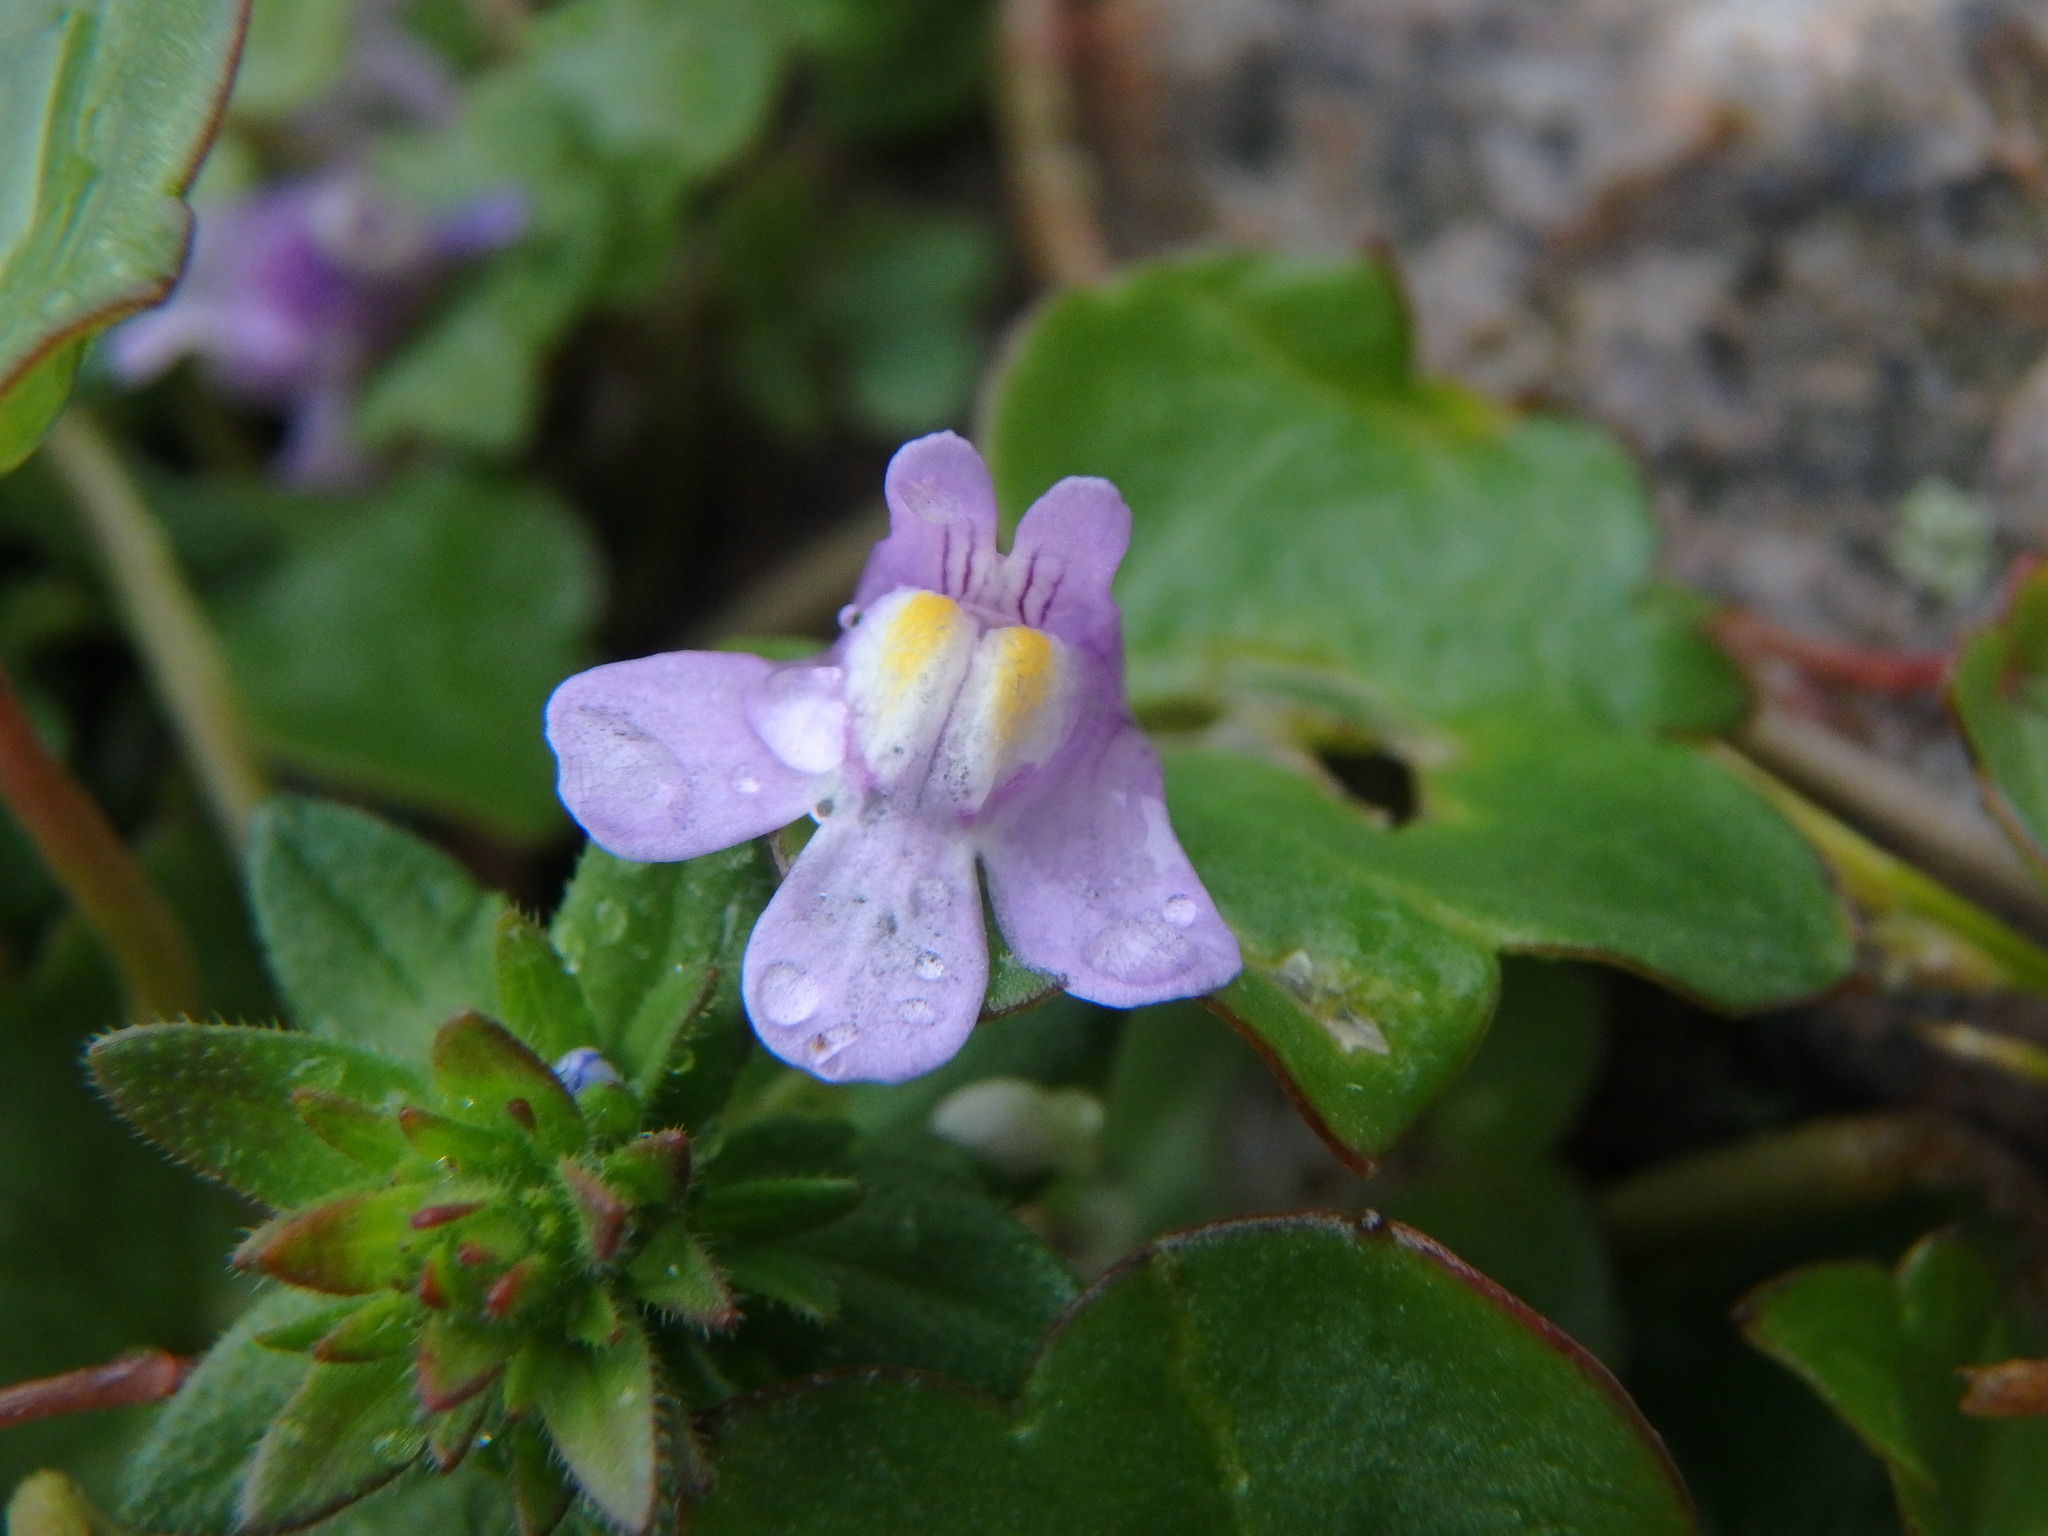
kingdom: Plantae
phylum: Tracheophyta
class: Magnoliopsida
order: Lamiales
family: Plantaginaceae
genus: Cymbalaria
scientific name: Cymbalaria muralis
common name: Ivy-leaved toadflax
